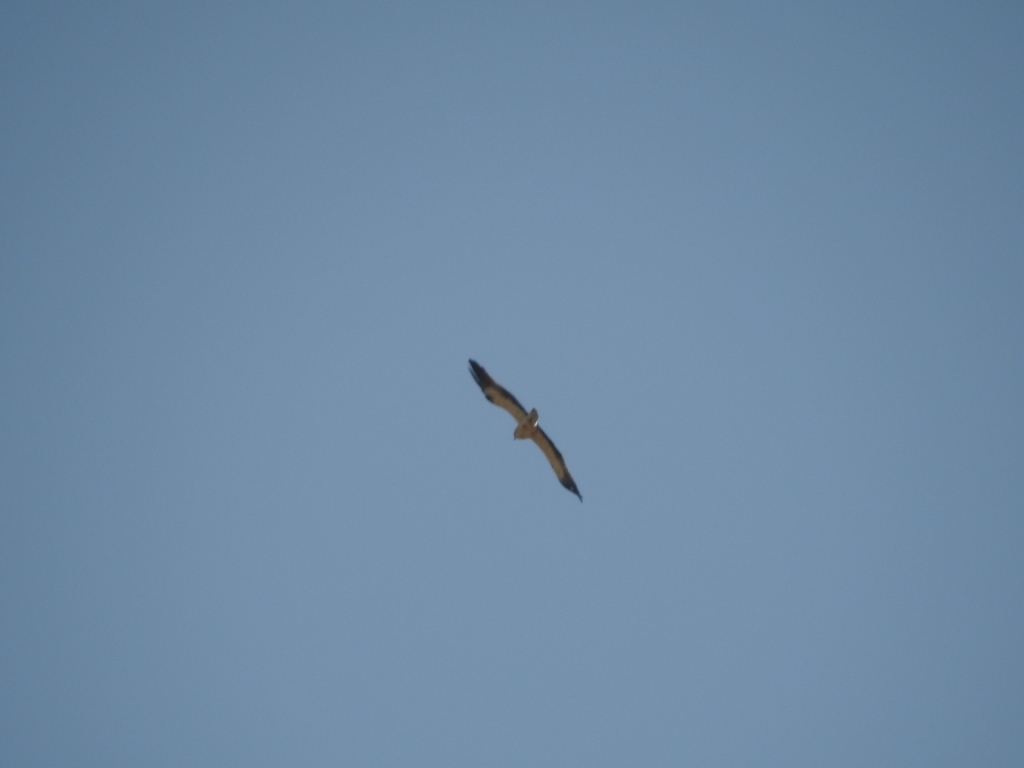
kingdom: Animalia
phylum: Chordata
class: Aves
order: Accipitriformes
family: Accipitridae
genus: Hieraaetus
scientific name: Hieraaetus pennatus
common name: Booted eagle
